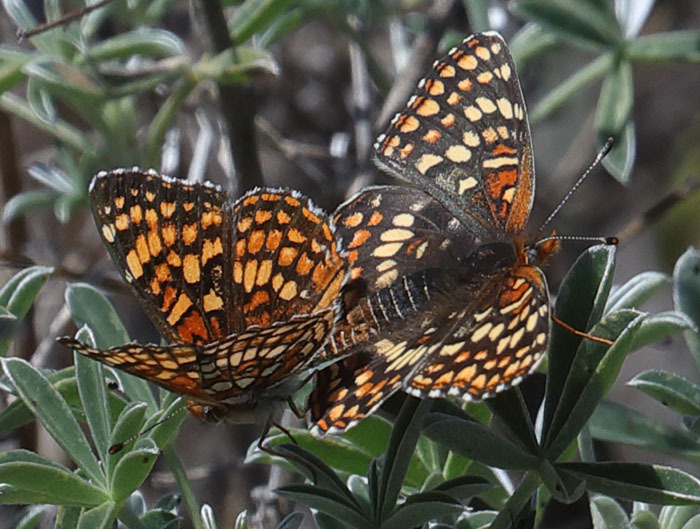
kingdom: Animalia
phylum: Arthropoda
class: Insecta
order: Lepidoptera
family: Nymphalidae
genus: Chlosyne
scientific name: Chlosyne gabbii
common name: Gabb's checkerspot
